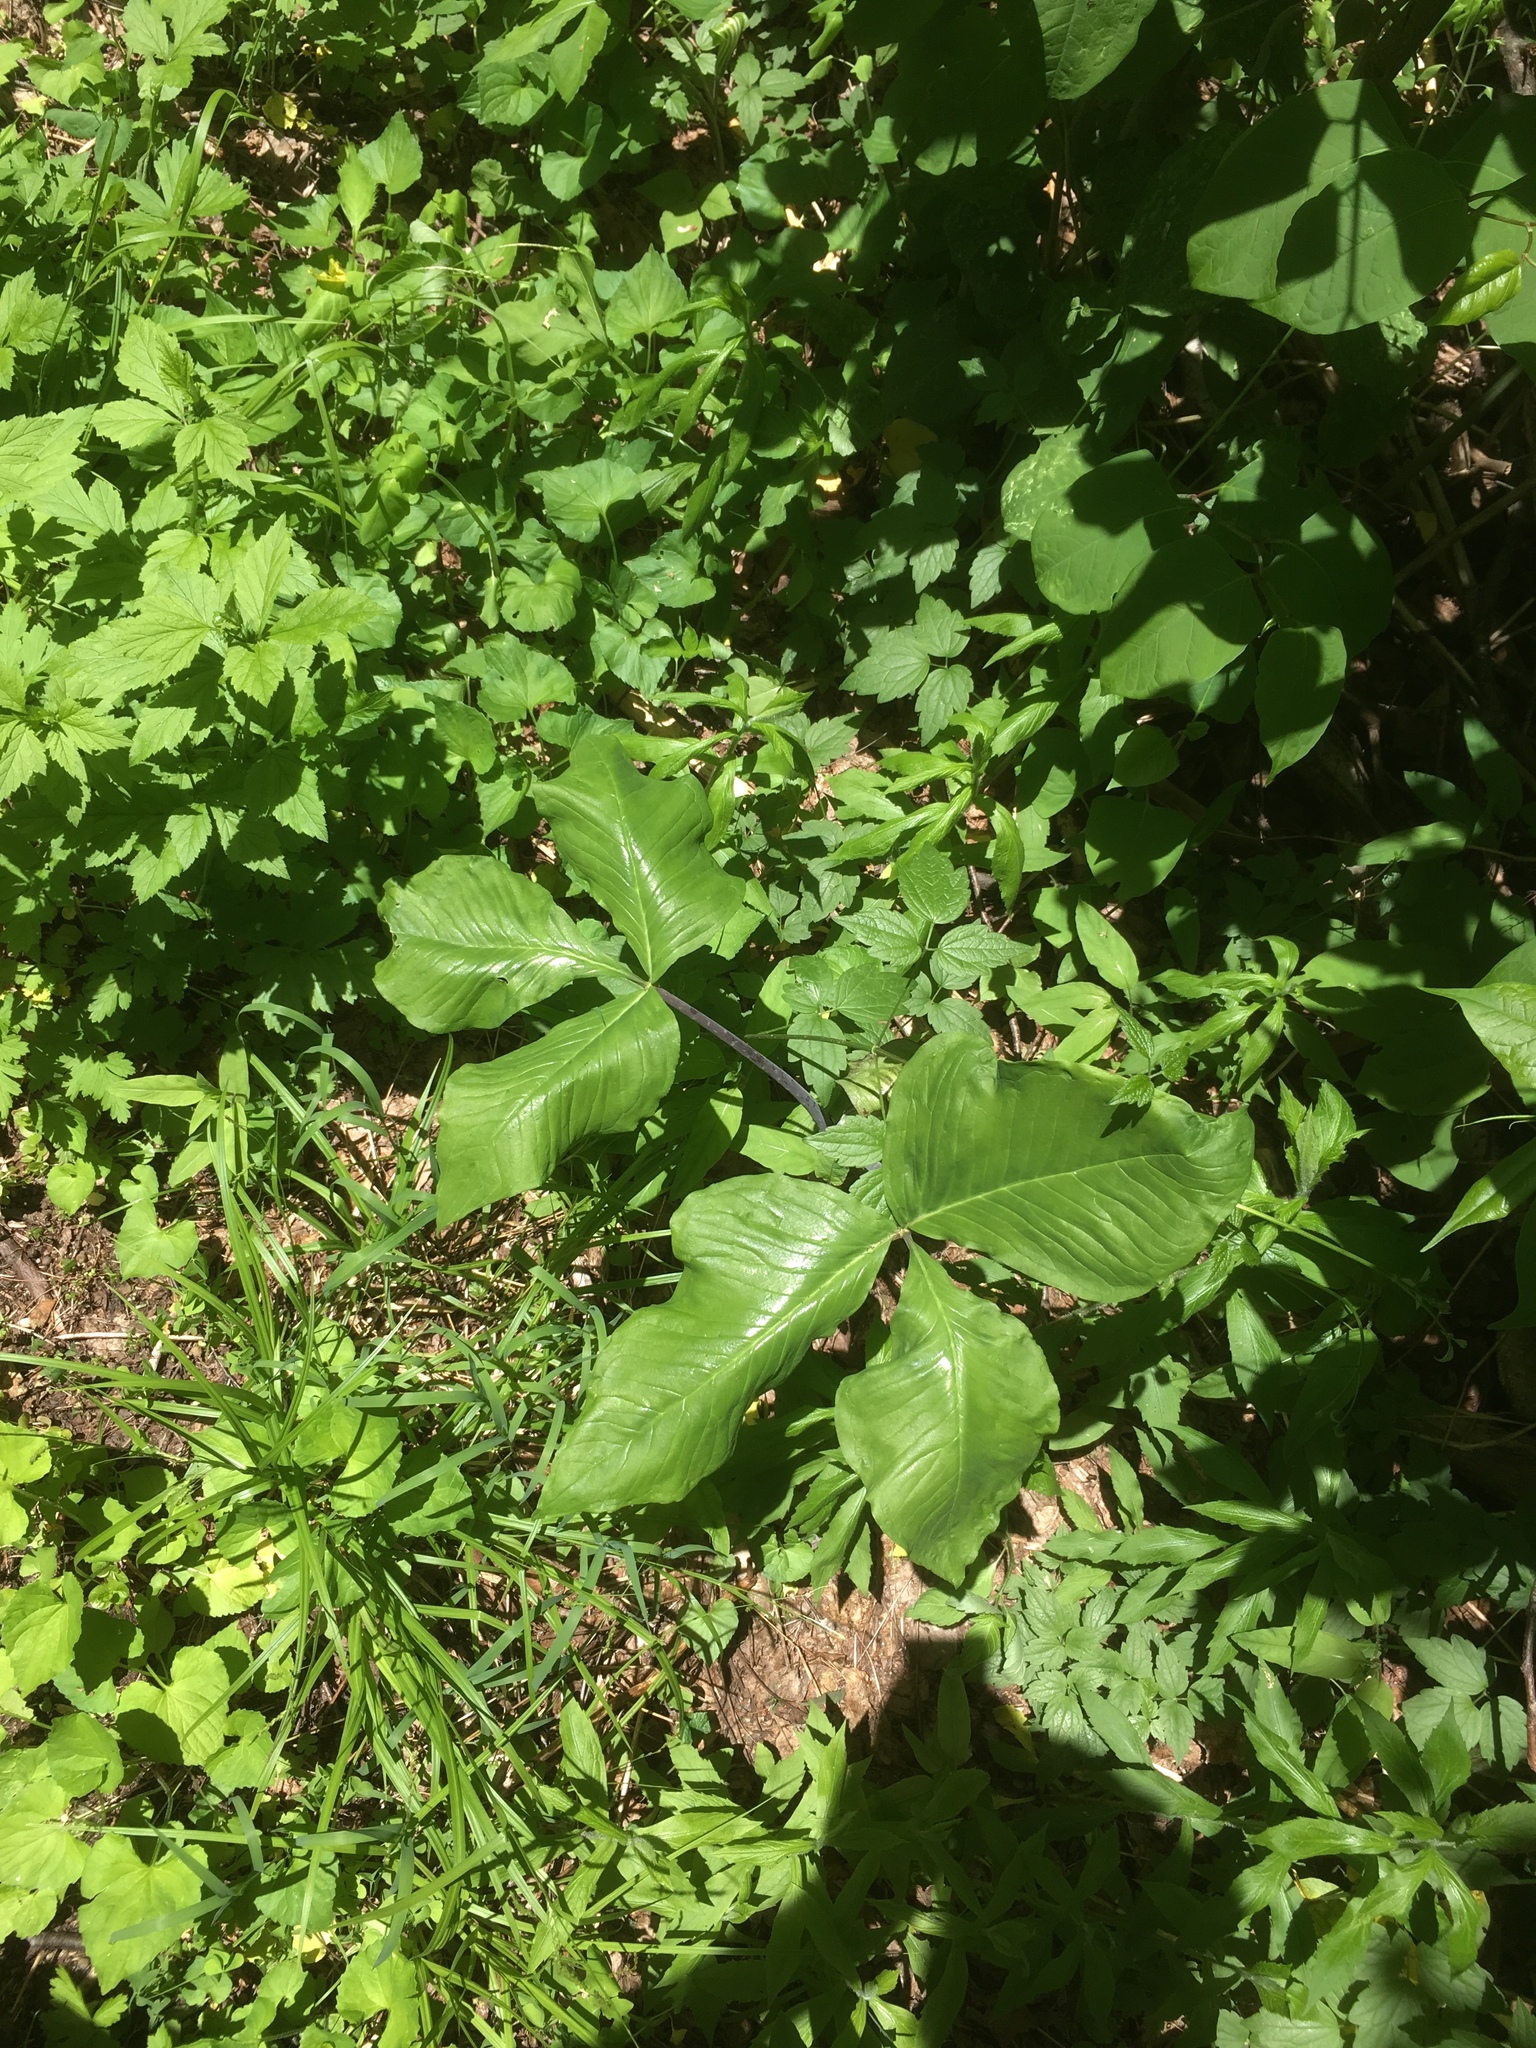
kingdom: Plantae
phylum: Tracheophyta
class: Liliopsida
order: Alismatales
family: Araceae
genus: Arisaema
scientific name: Arisaema triphyllum
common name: Jack-in-the-pulpit
